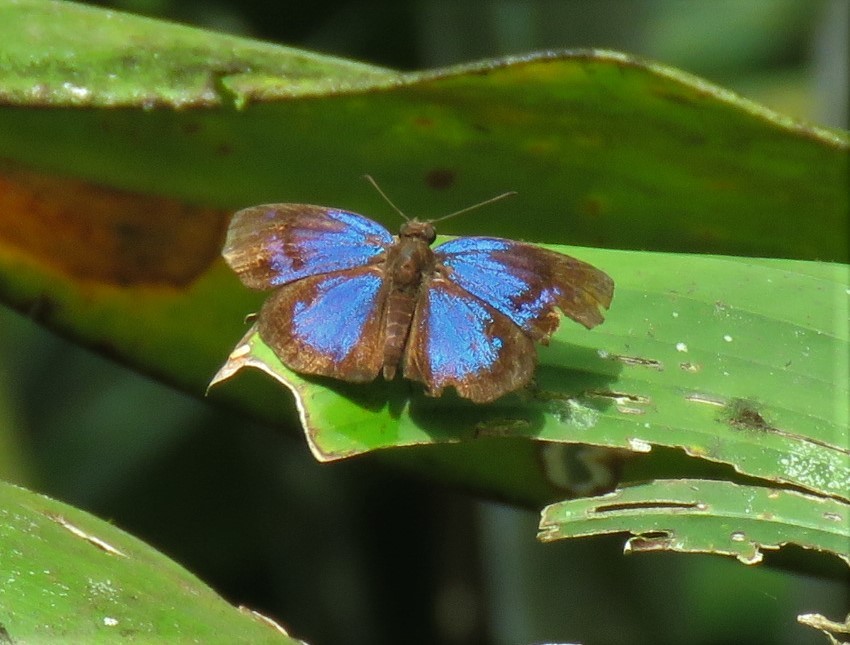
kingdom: Animalia
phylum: Arthropoda
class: Insecta
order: Lepidoptera
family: Hesperiidae
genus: Paches
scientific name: Paches loxus
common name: Glorious blue-skipper
